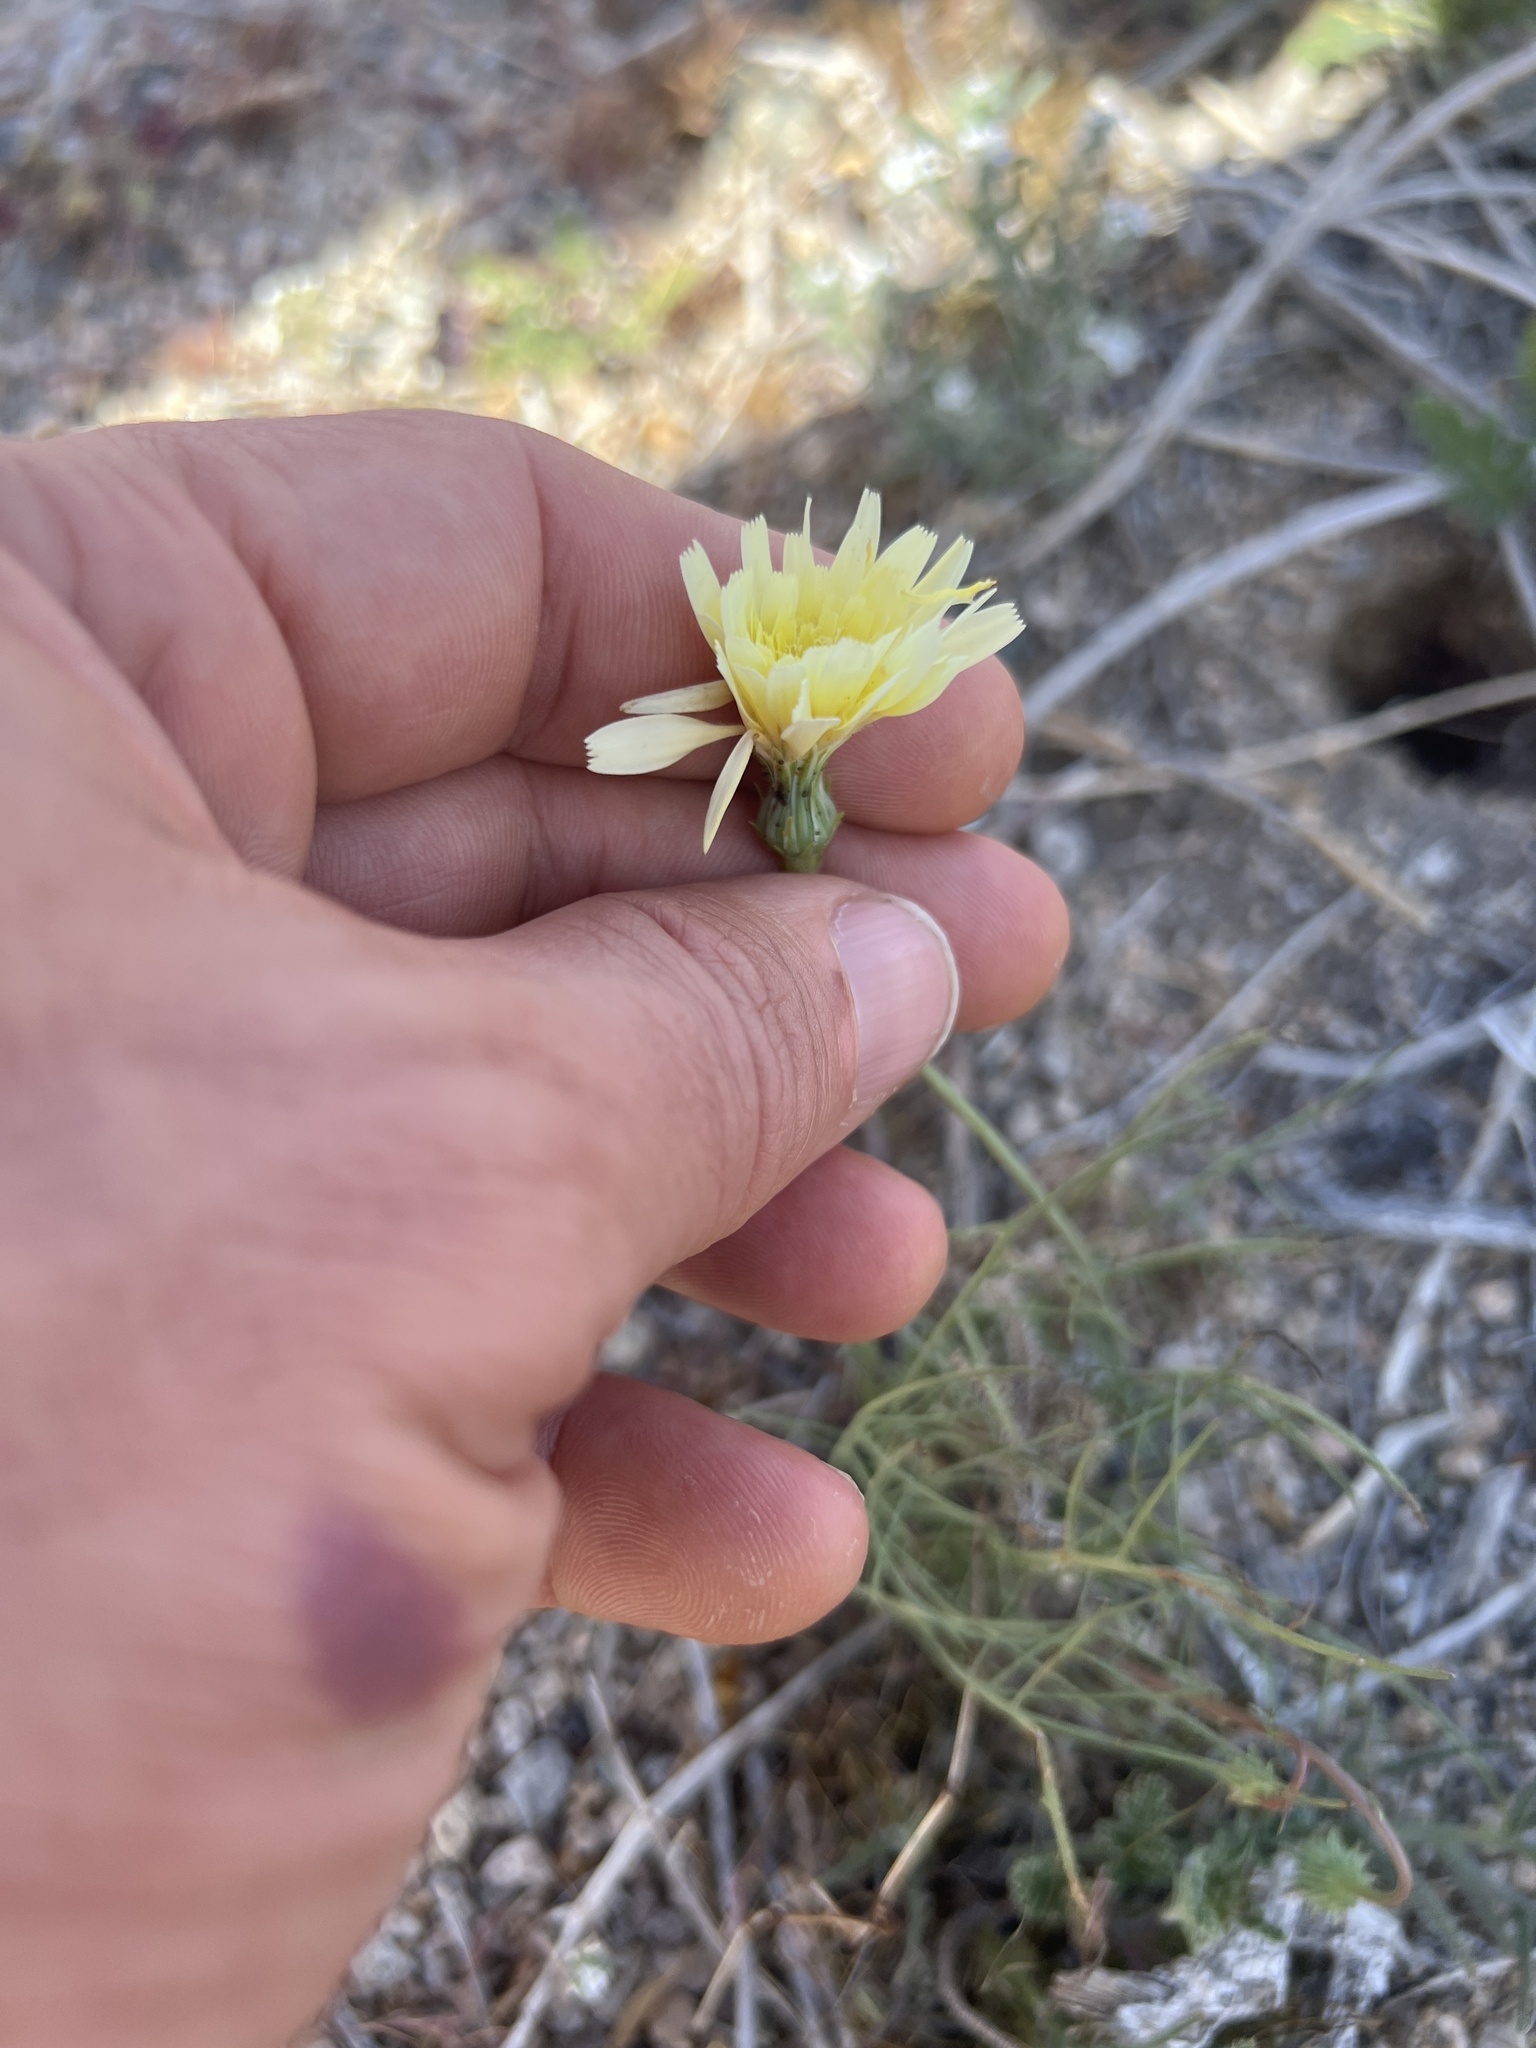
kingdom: Plantae
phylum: Tracheophyta
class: Magnoliopsida
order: Asterales
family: Asteraceae
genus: Malacothrix
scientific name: Malacothrix glabrata
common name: Smooth desert-dandelion
